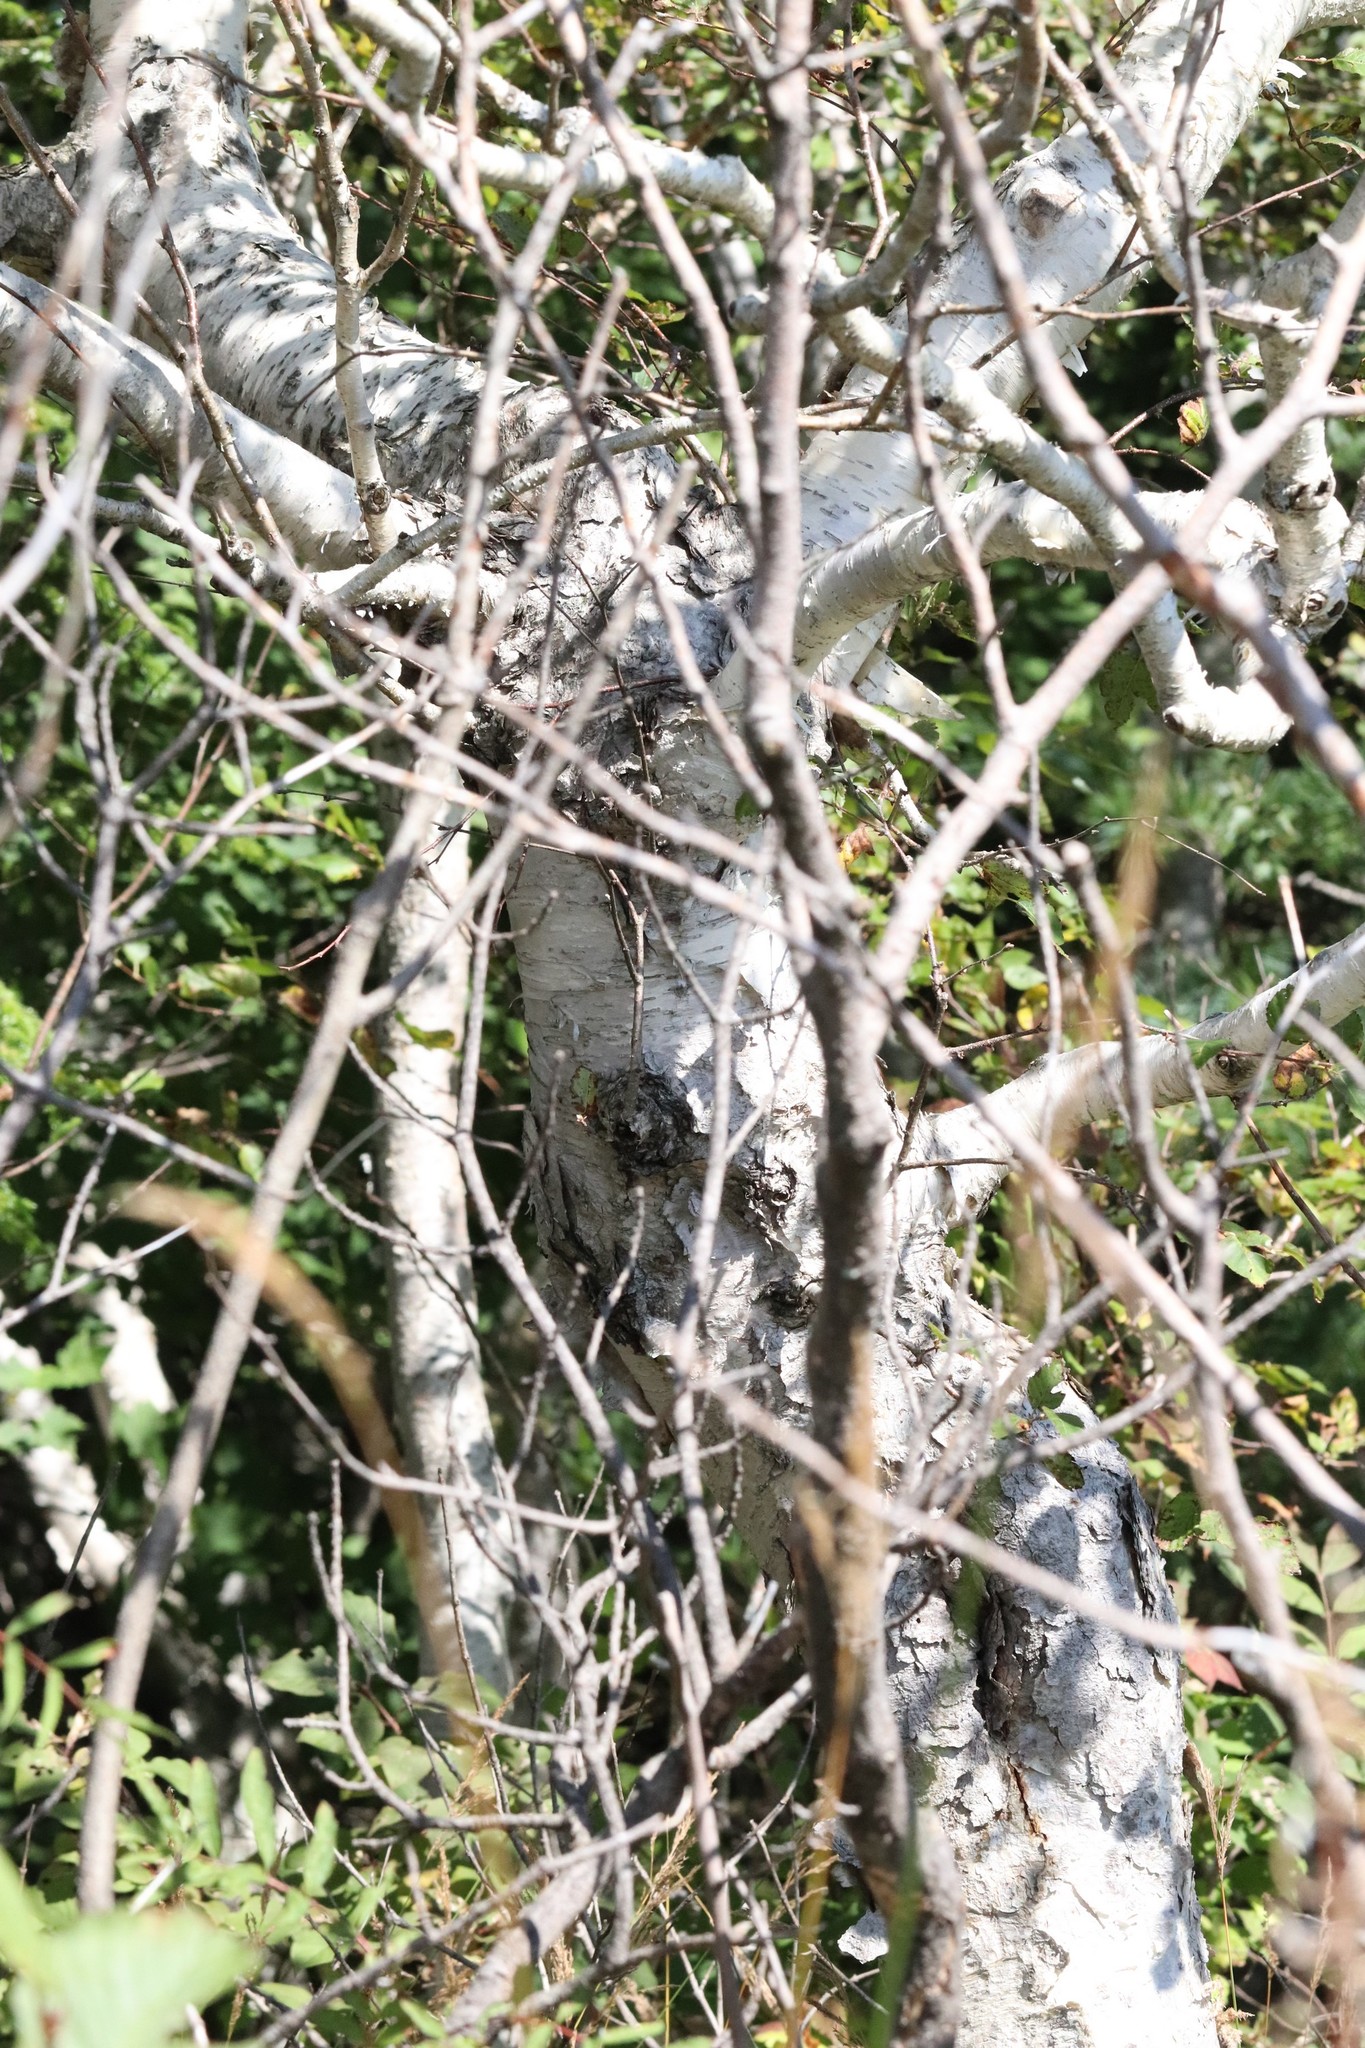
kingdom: Plantae
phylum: Tracheophyta
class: Magnoliopsida
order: Fagales
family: Betulaceae
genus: Betula
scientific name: Betula ermanii
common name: Erman's birch
